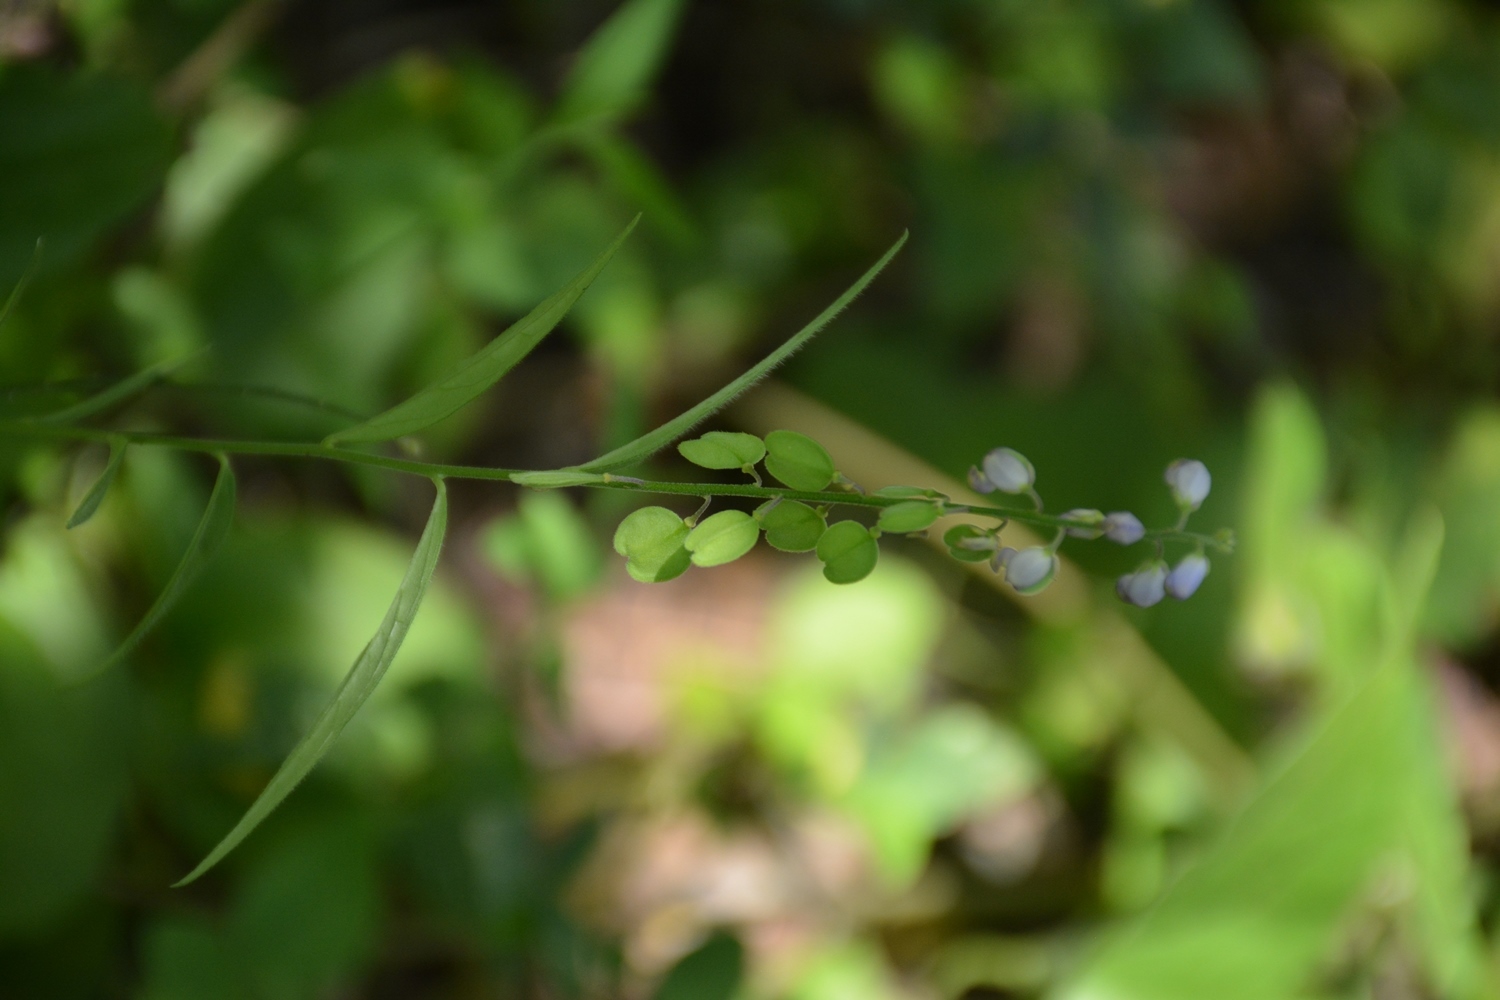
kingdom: Plantae
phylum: Tracheophyta
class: Magnoliopsida
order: Fabales
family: Polygalaceae
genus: Hebecarpa
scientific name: Hebecarpa rivinifolia
